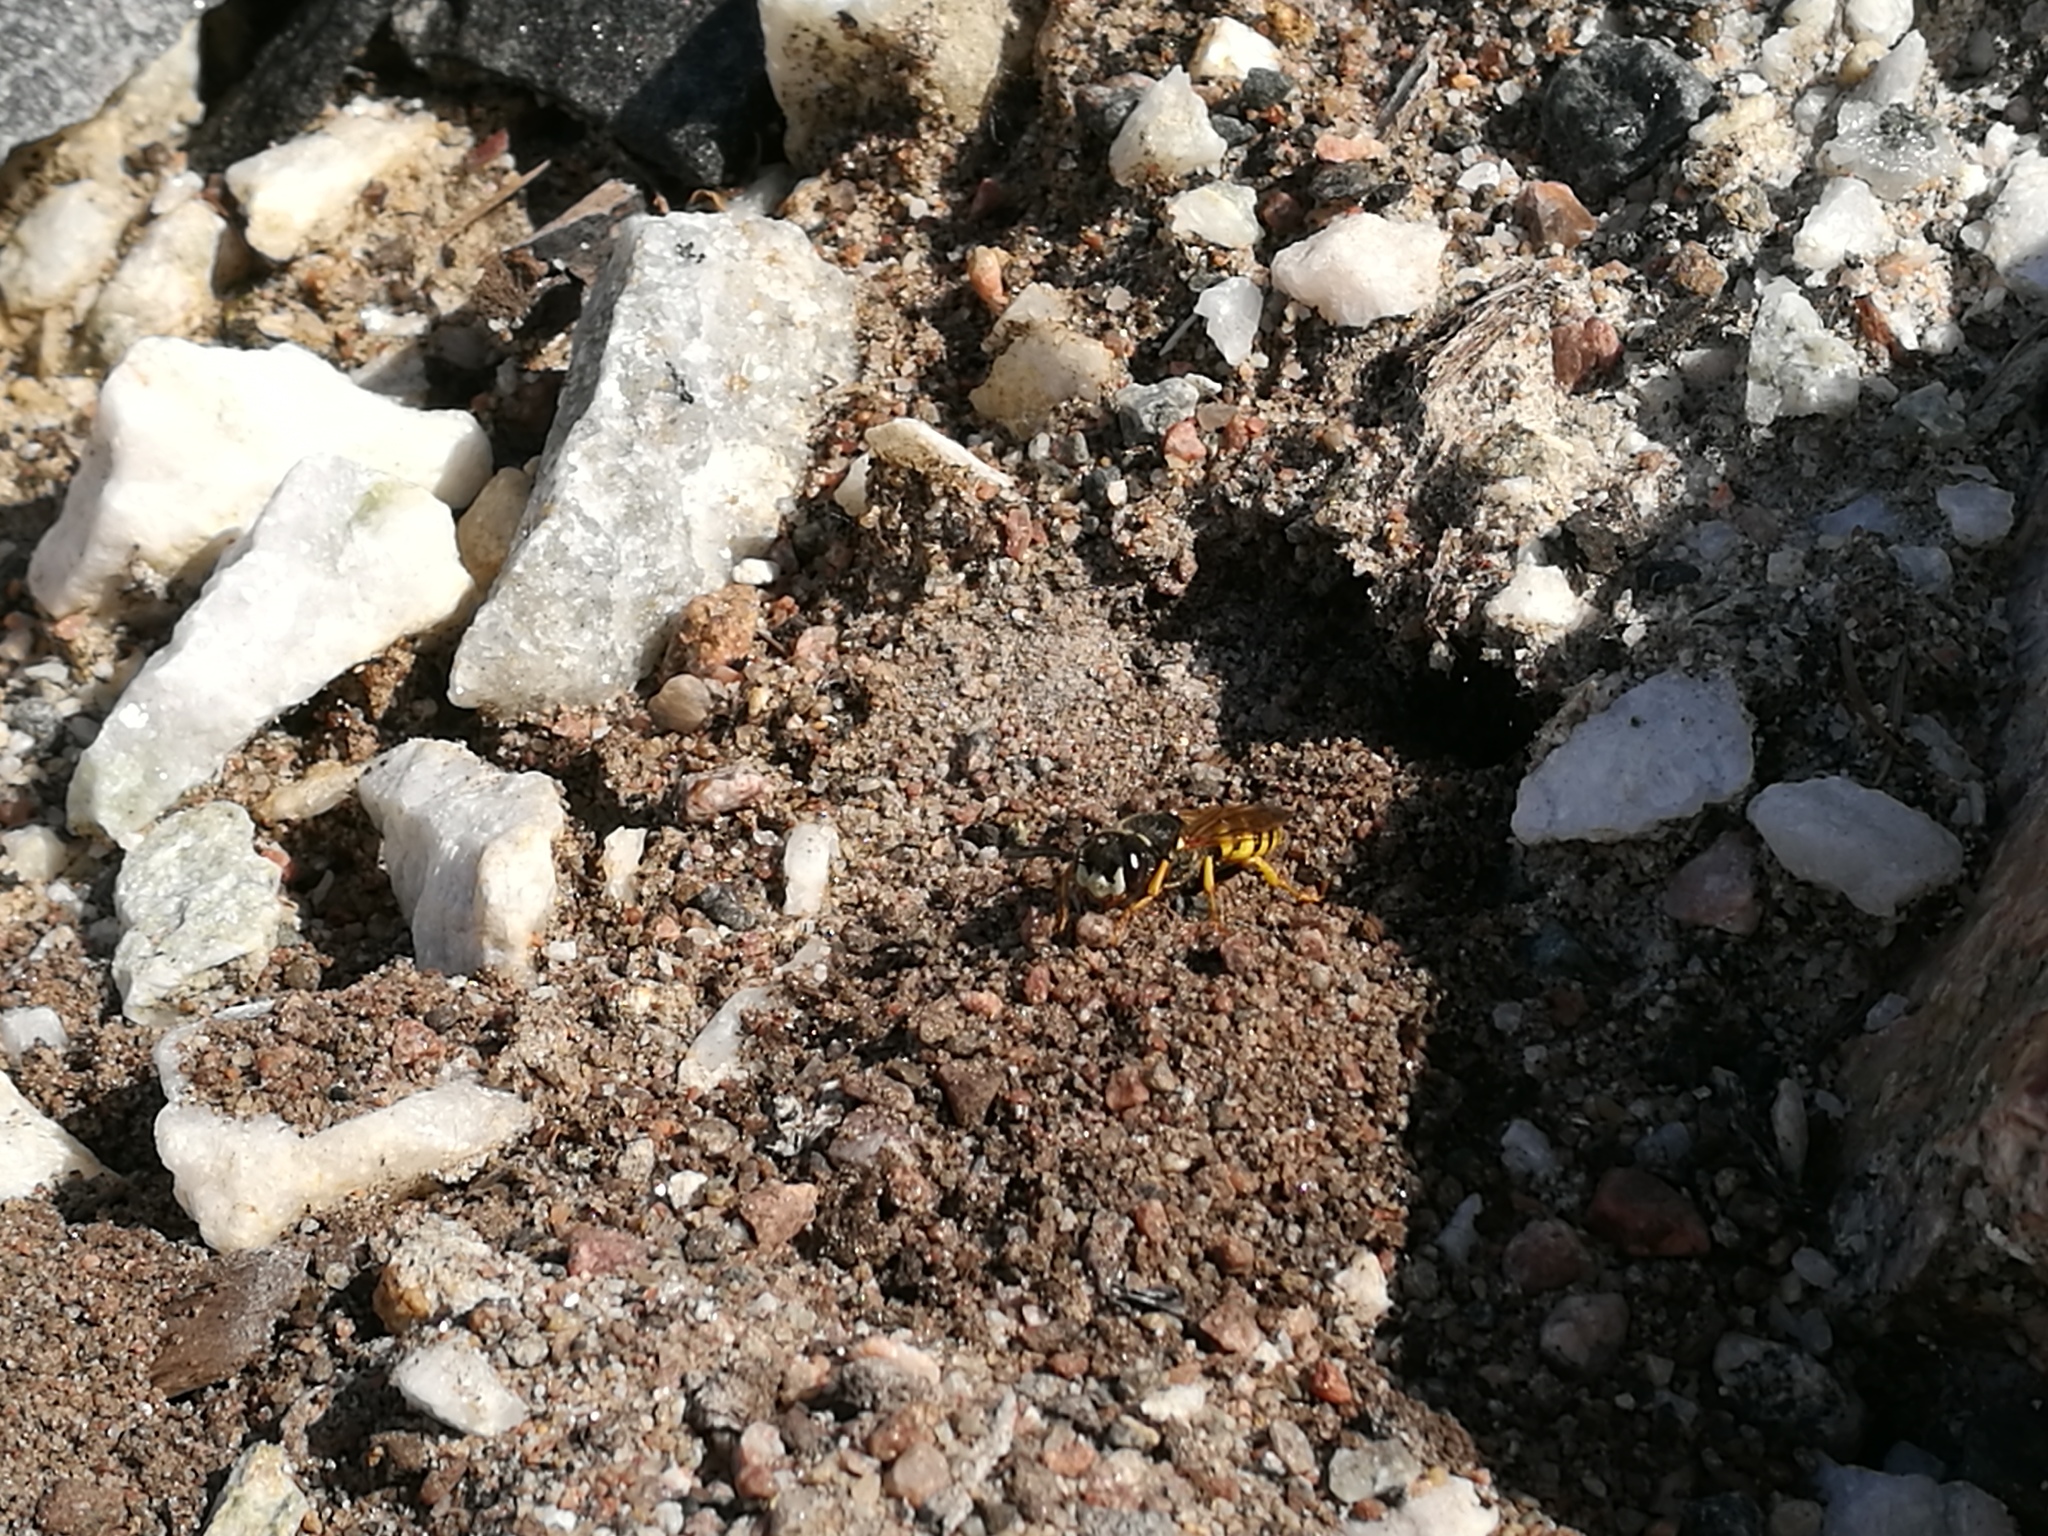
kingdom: Animalia
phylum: Arthropoda
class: Insecta
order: Hymenoptera
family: Crabronidae
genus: Philanthus
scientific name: Philanthus triangulum
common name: Bee wolf
